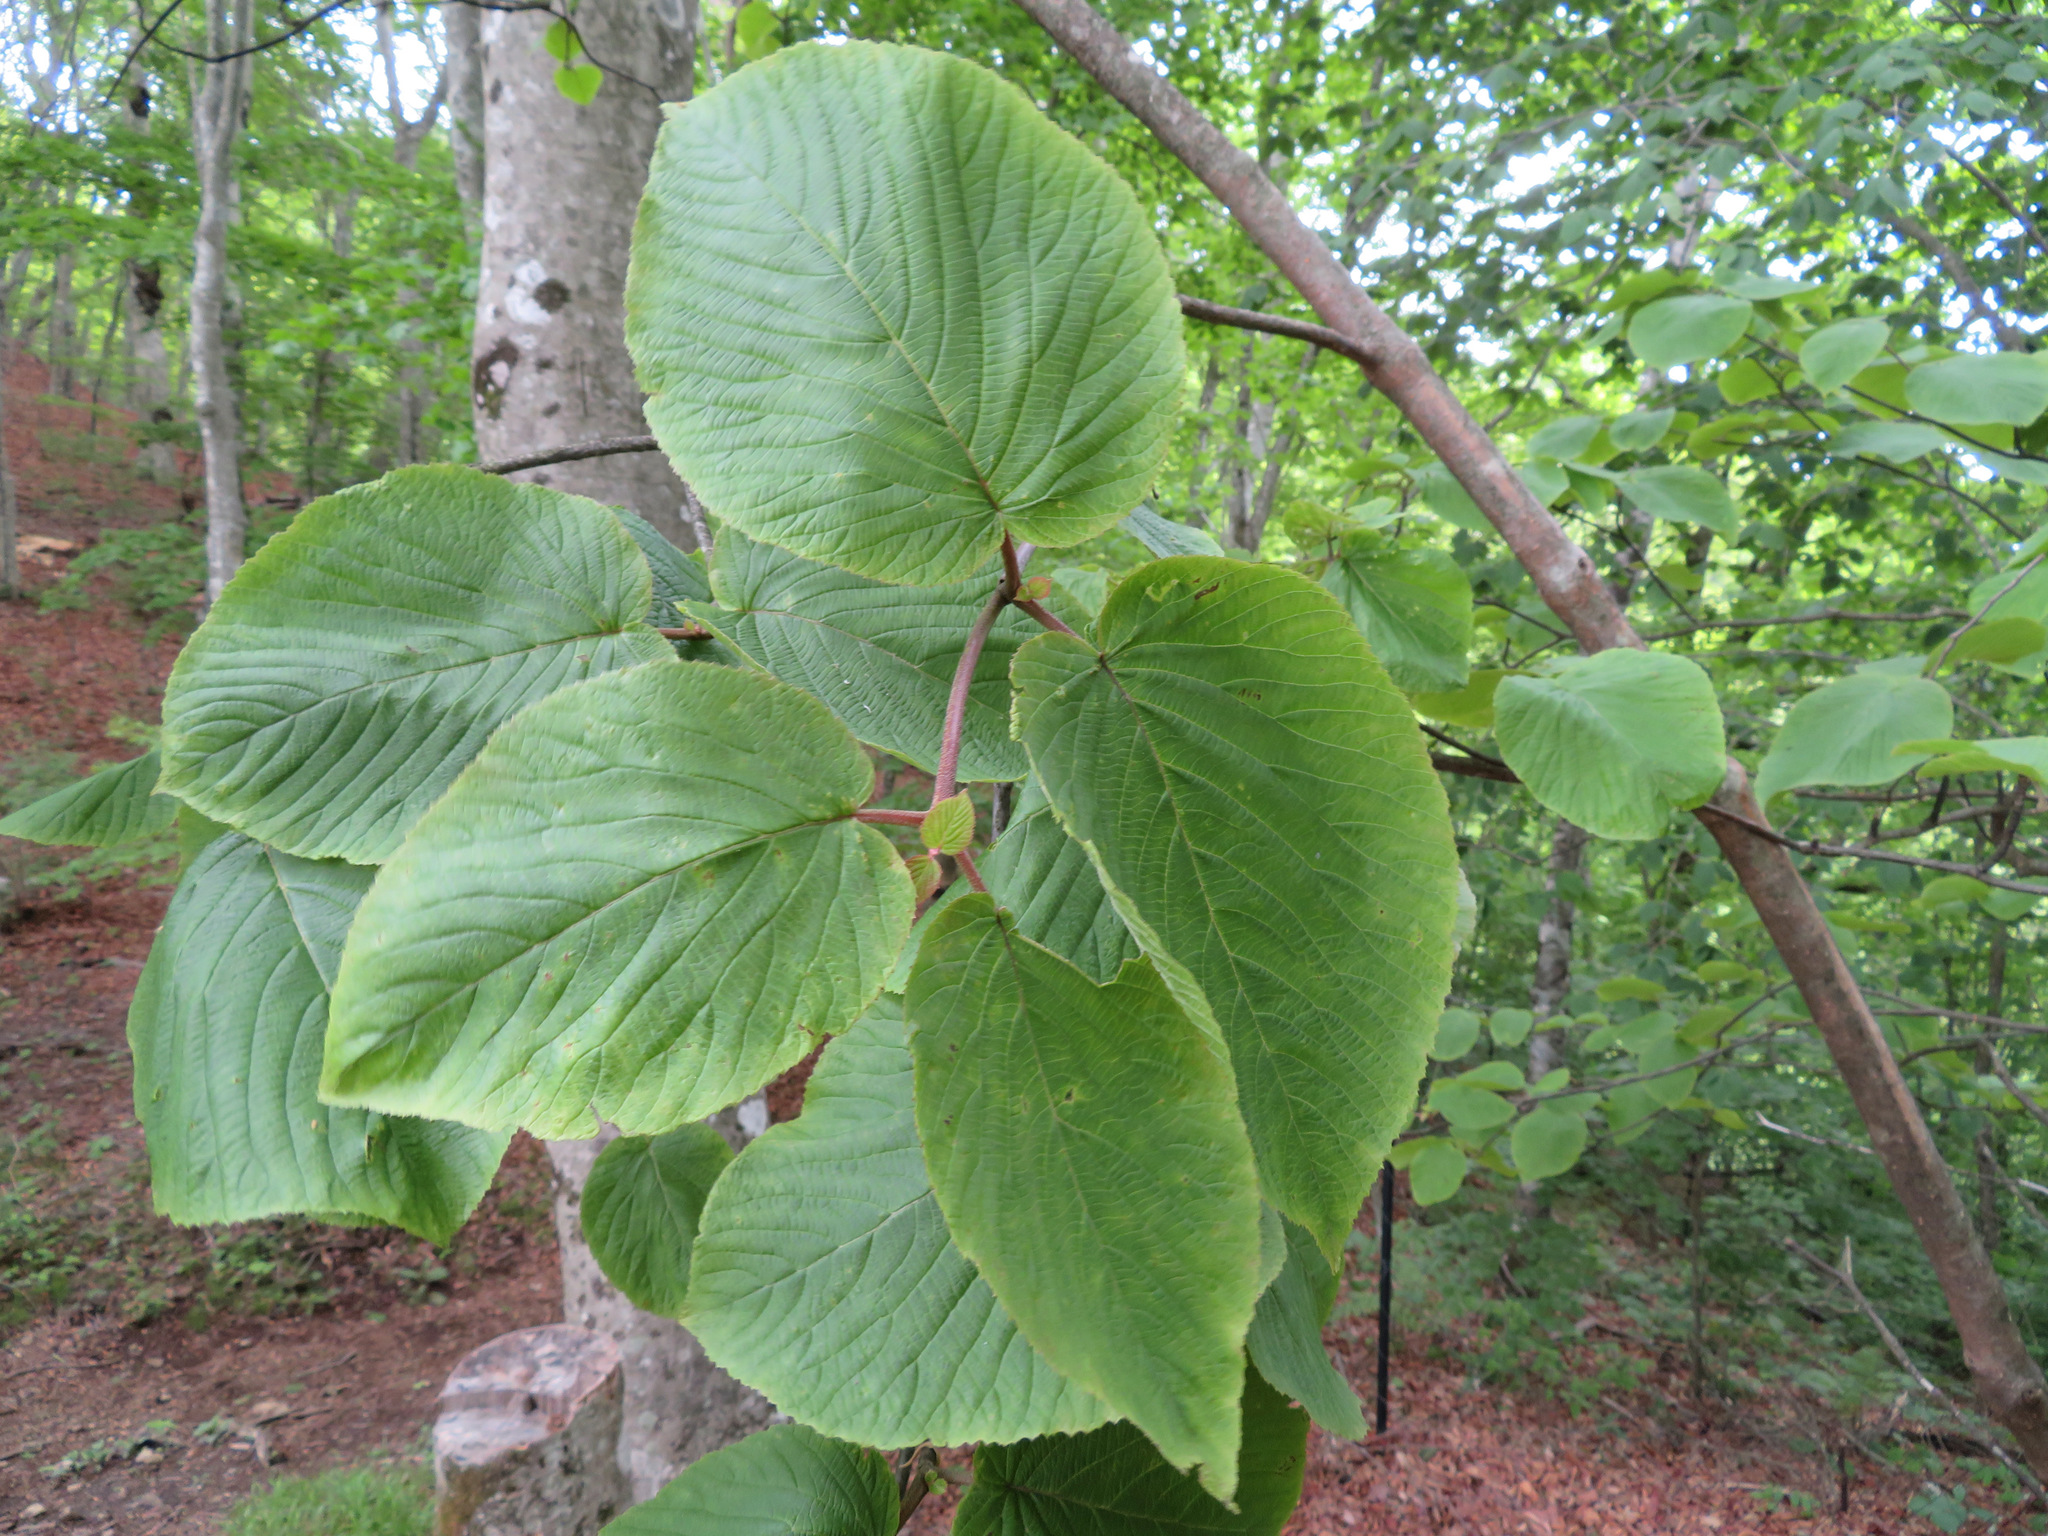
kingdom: Plantae
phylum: Tracheophyta
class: Magnoliopsida
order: Dipsacales
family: Viburnaceae
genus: Viburnum
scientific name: Viburnum furcatum
